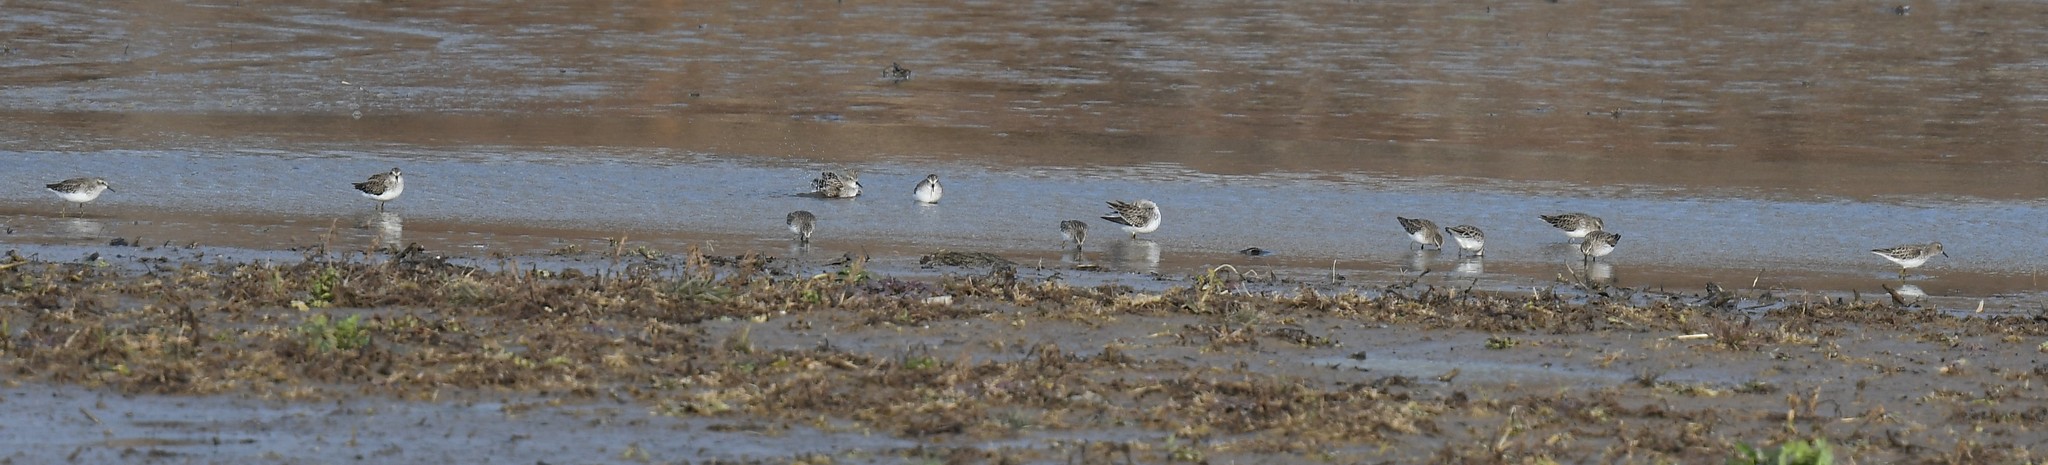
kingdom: Animalia
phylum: Chordata
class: Aves
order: Charadriiformes
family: Scolopacidae
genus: Calidris
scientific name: Calidris minutilla
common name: Least sandpiper
